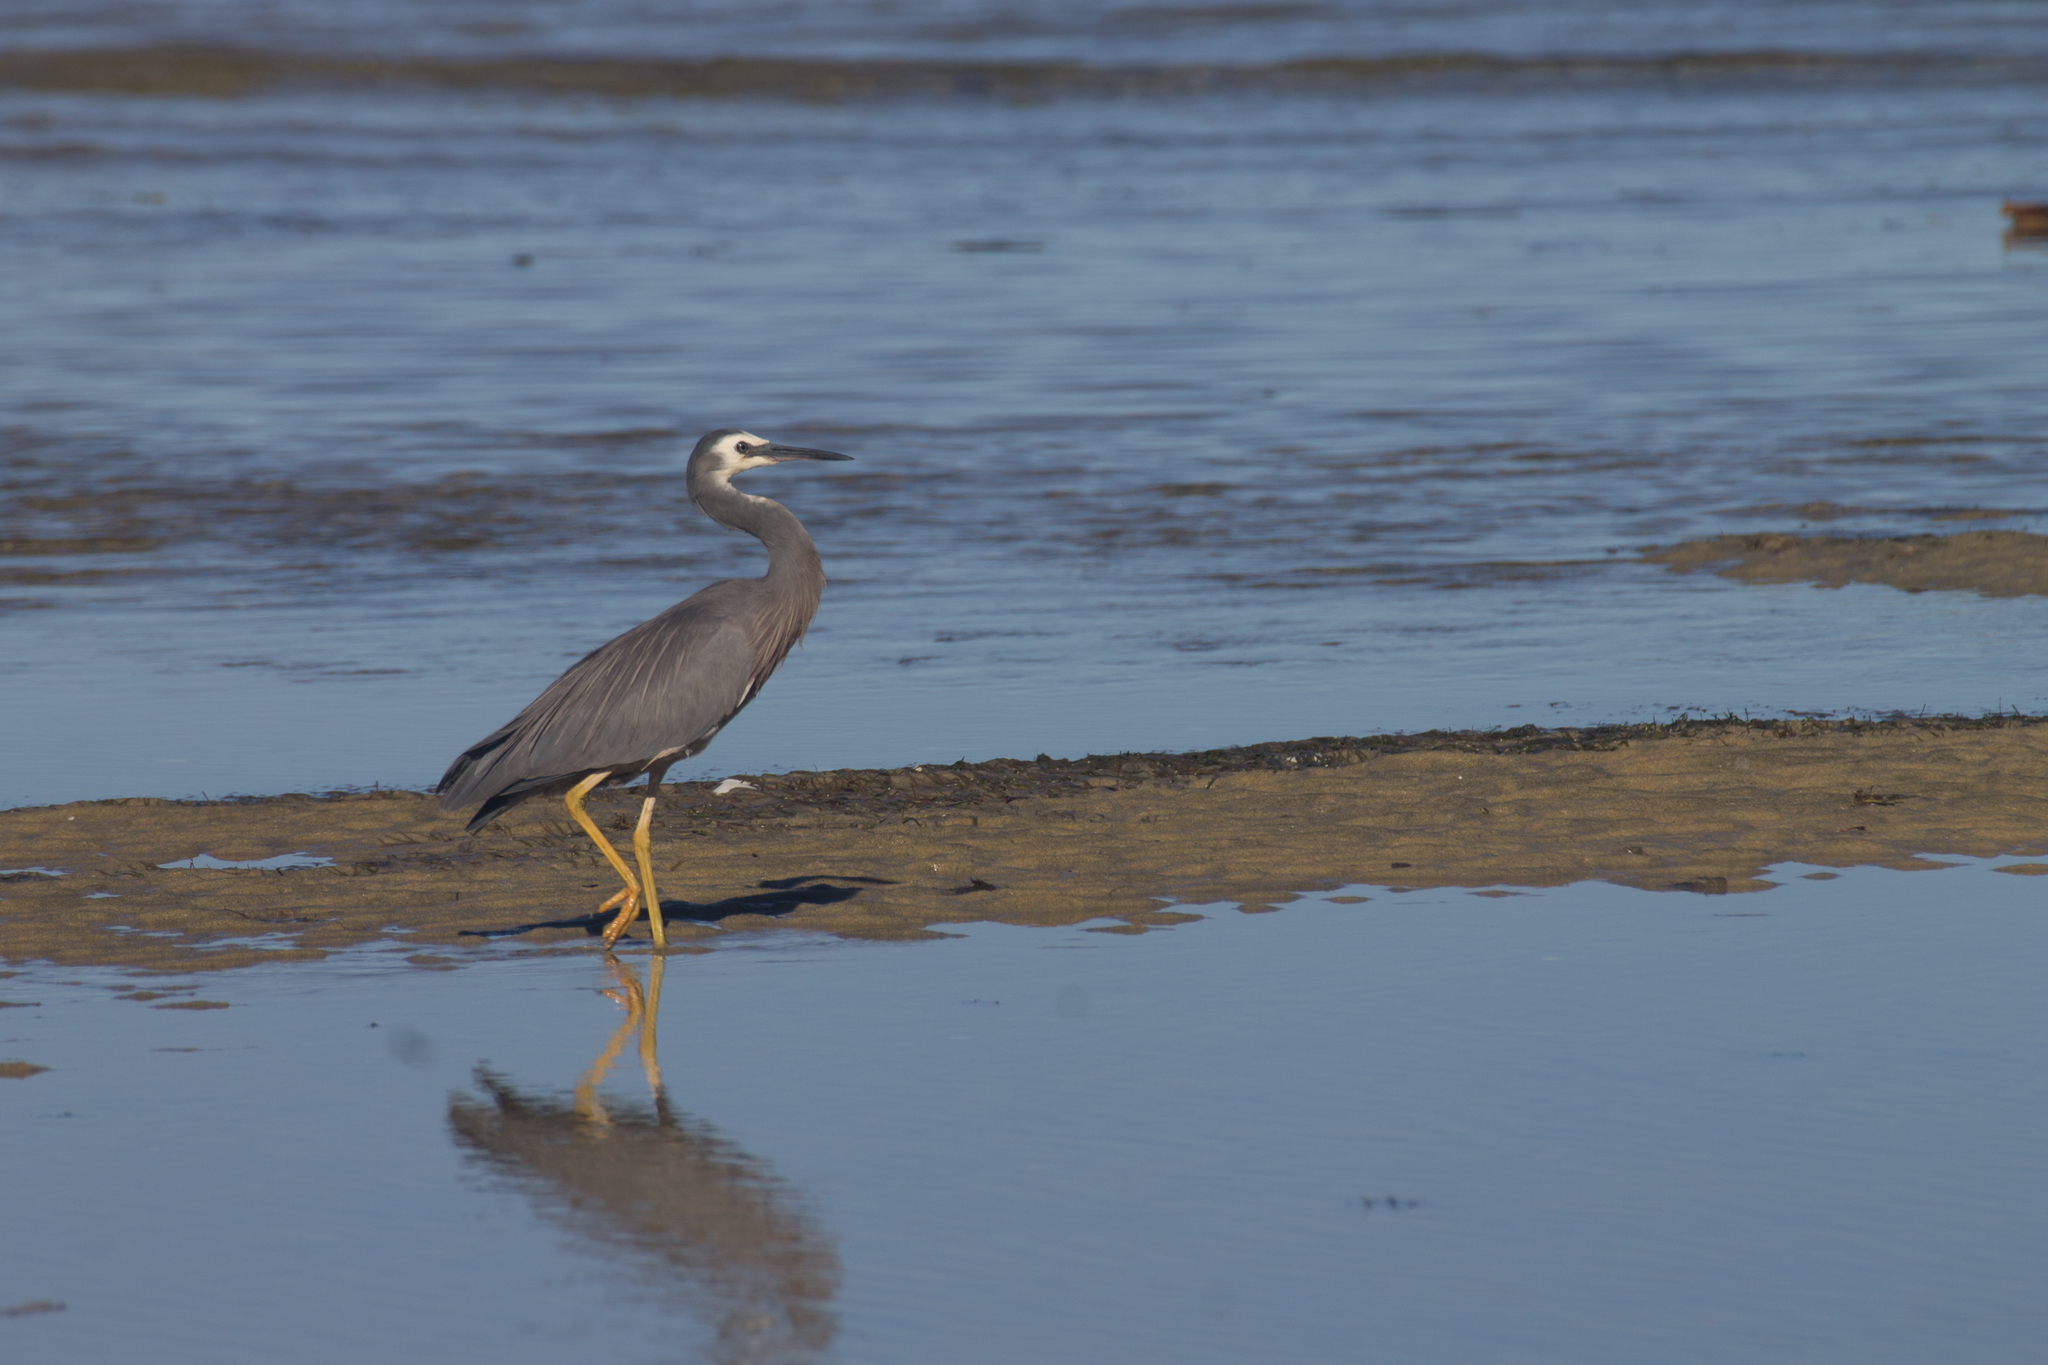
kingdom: Animalia
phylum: Chordata
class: Aves
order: Pelecaniformes
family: Ardeidae
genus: Egretta
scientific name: Egretta novaehollandiae
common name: White-faced heron
